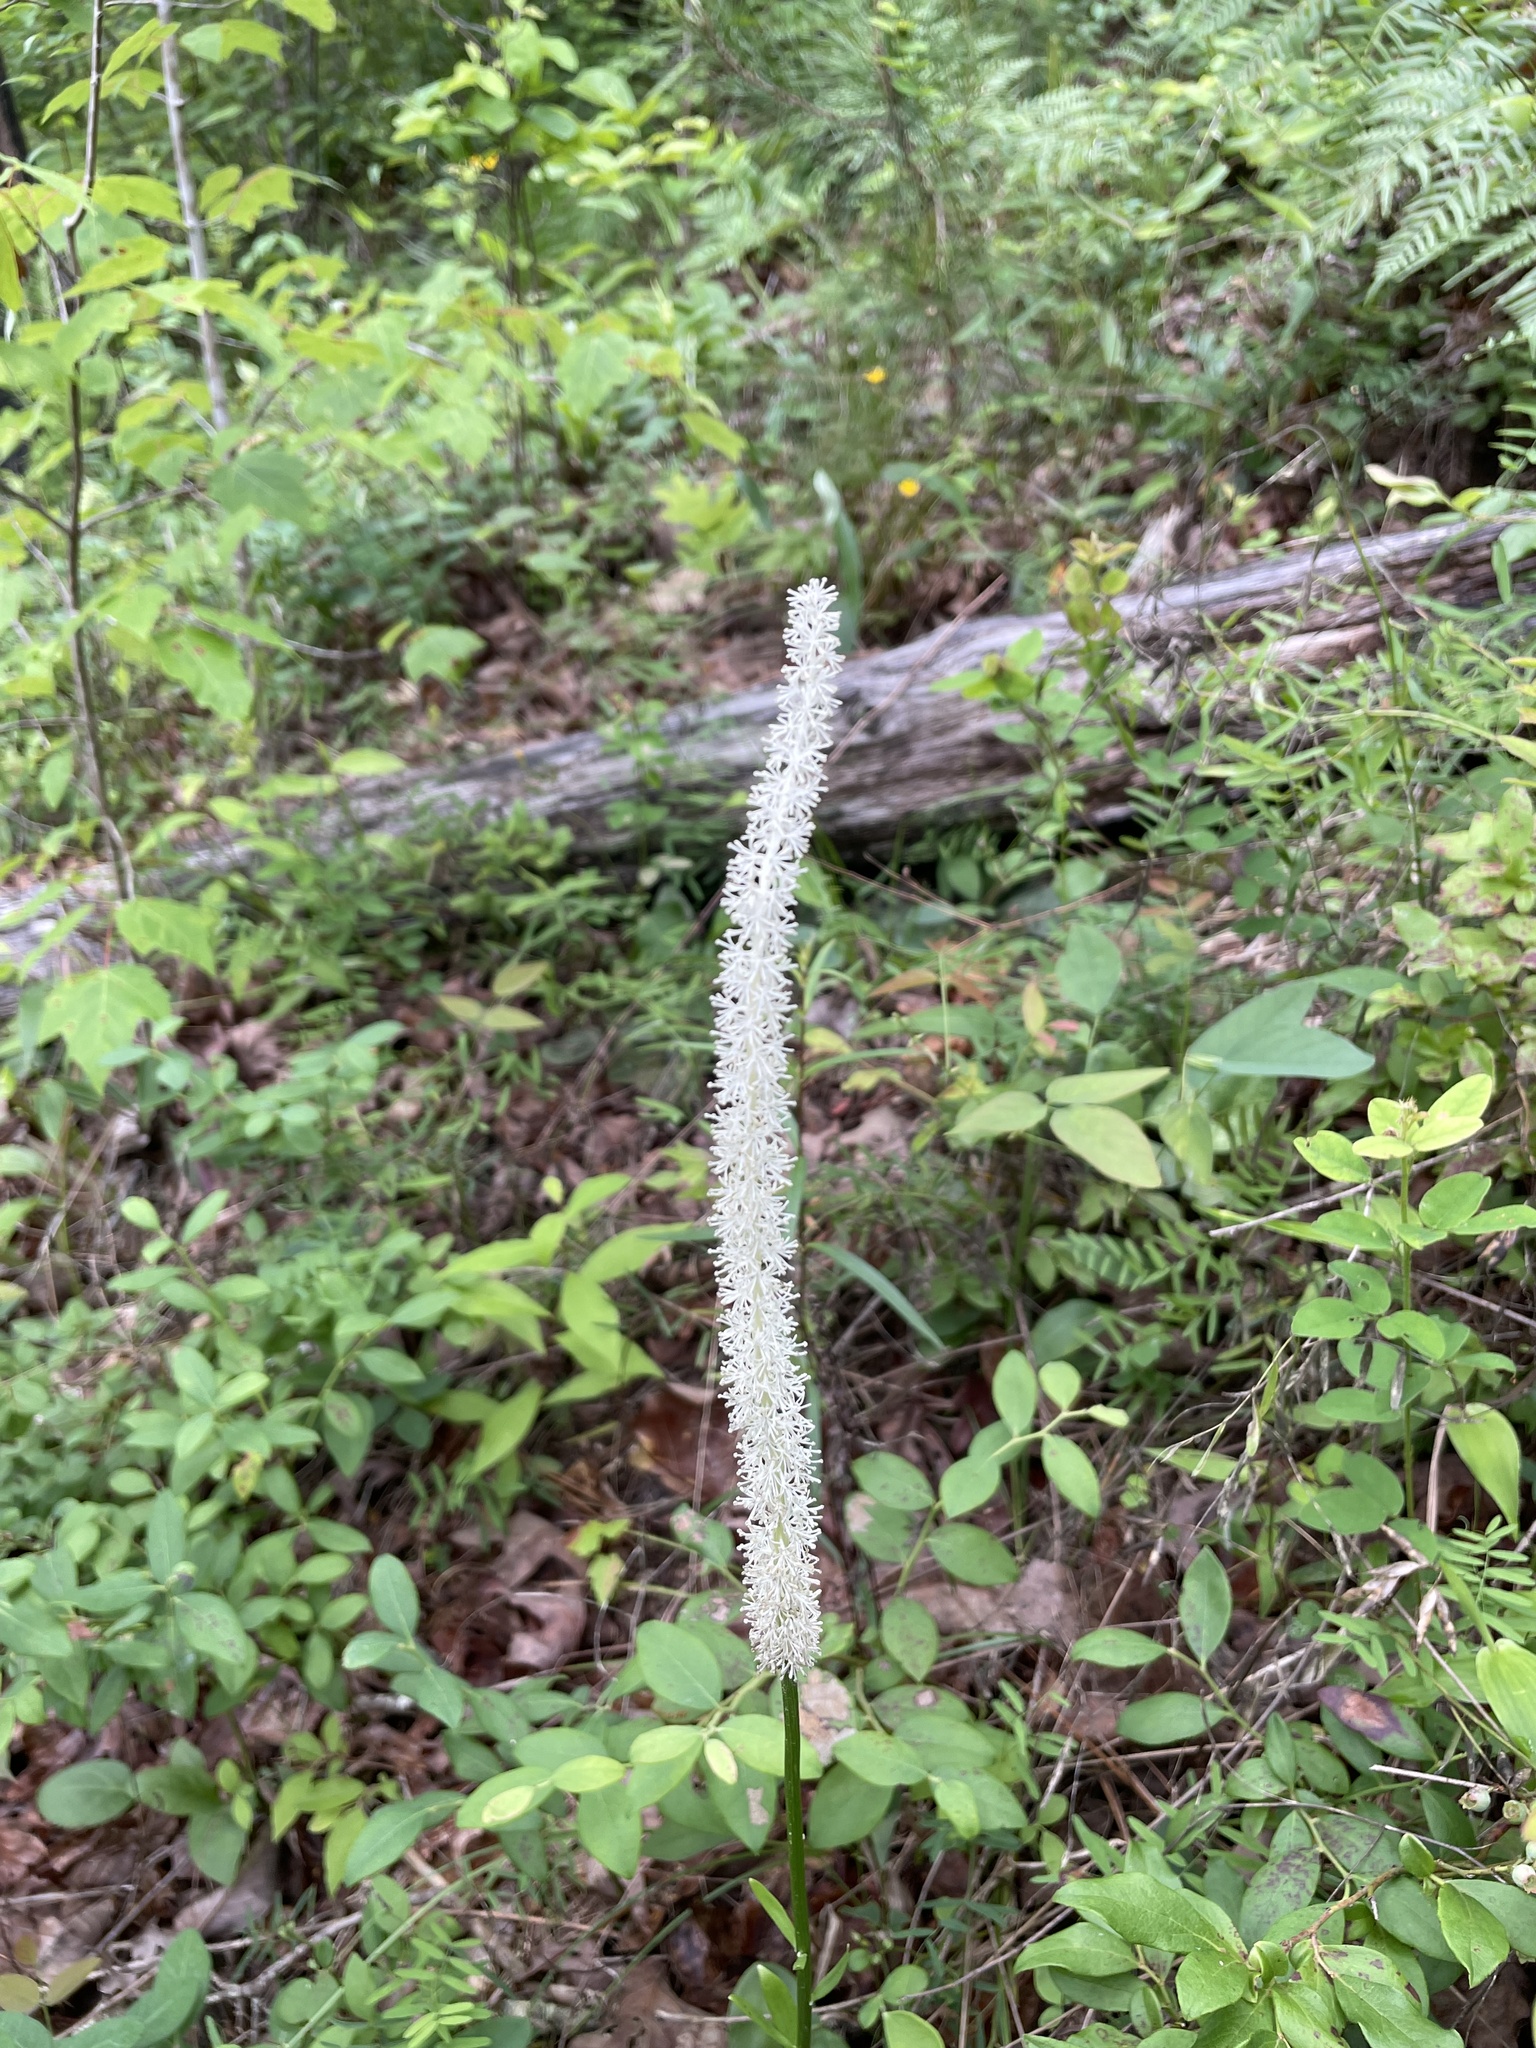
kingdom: Plantae
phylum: Tracheophyta
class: Liliopsida
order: Liliales
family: Melanthiaceae
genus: Chamaelirium
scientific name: Chamaelirium luteum
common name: Fairy-wand
